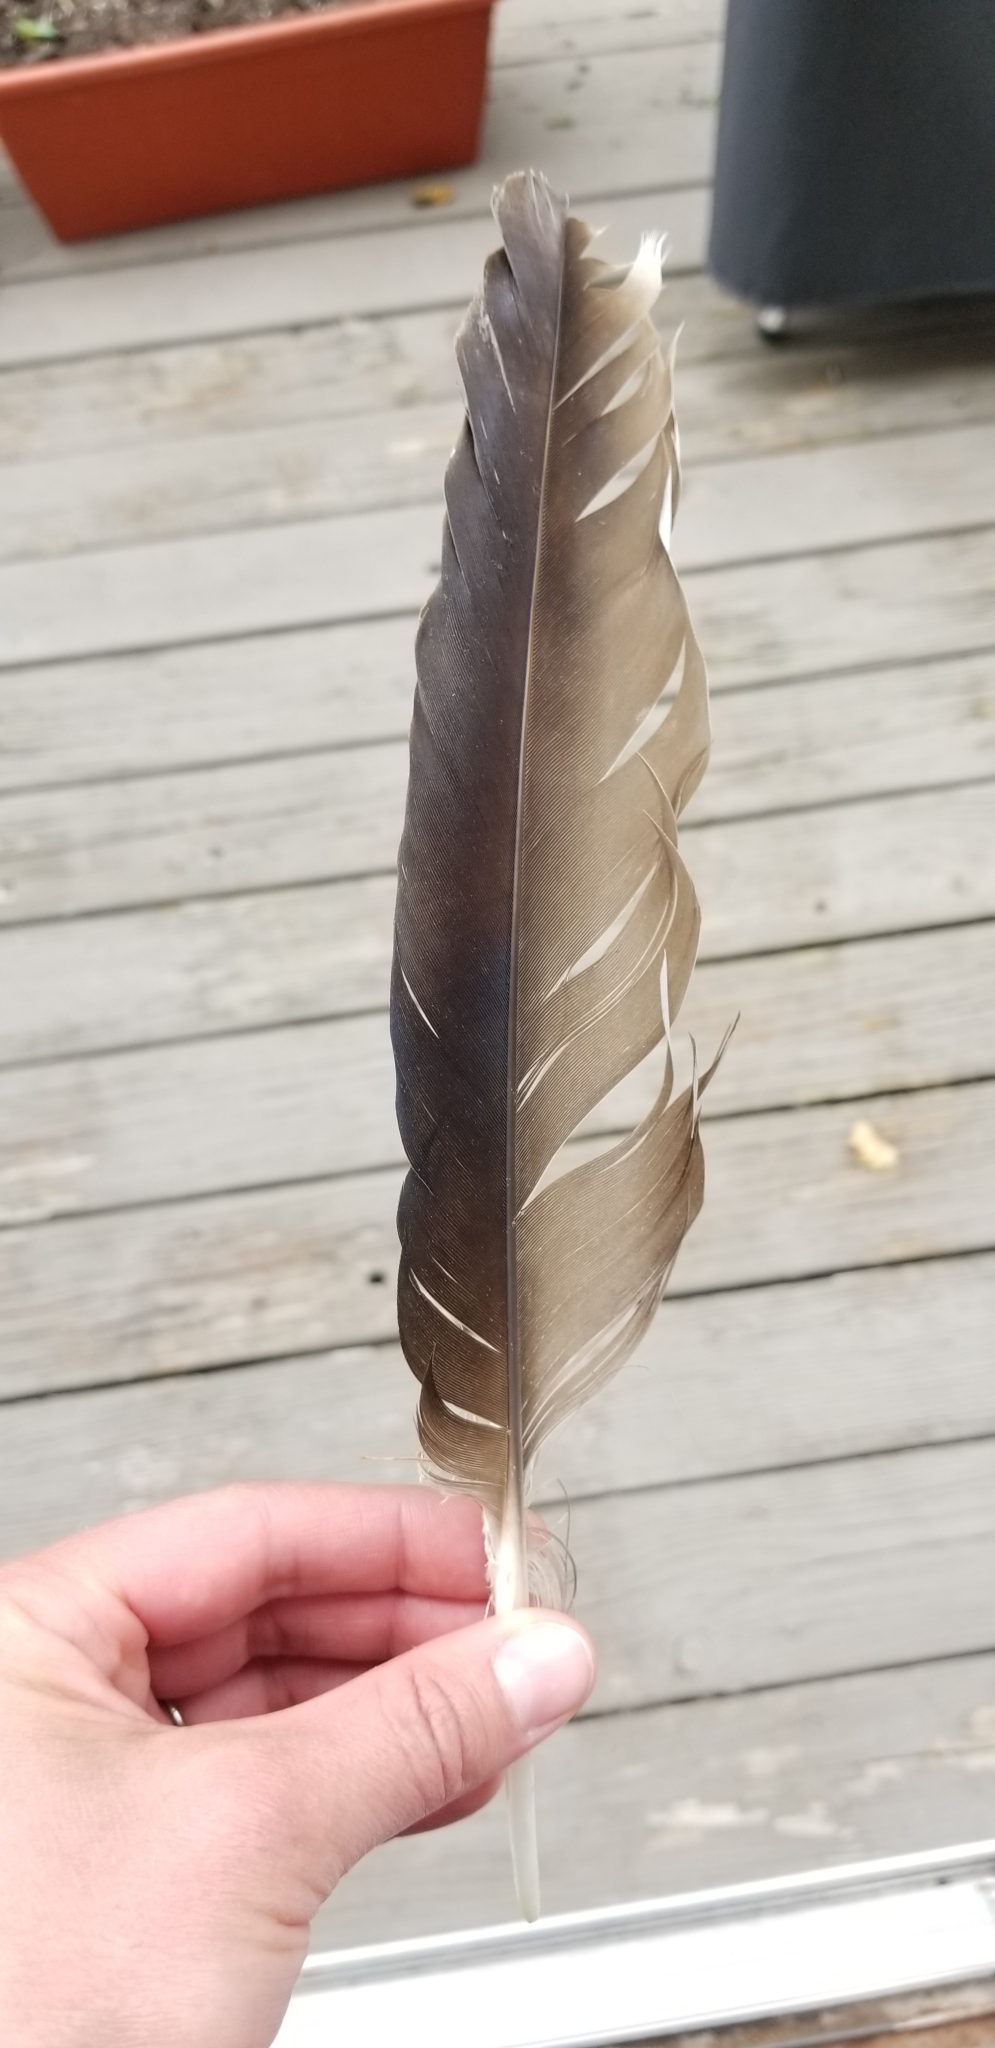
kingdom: Animalia
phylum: Chordata
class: Aves
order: Accipitriformes
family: Cathartidae
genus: Cathartes
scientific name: Cathartes aura
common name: Turkey vulture
